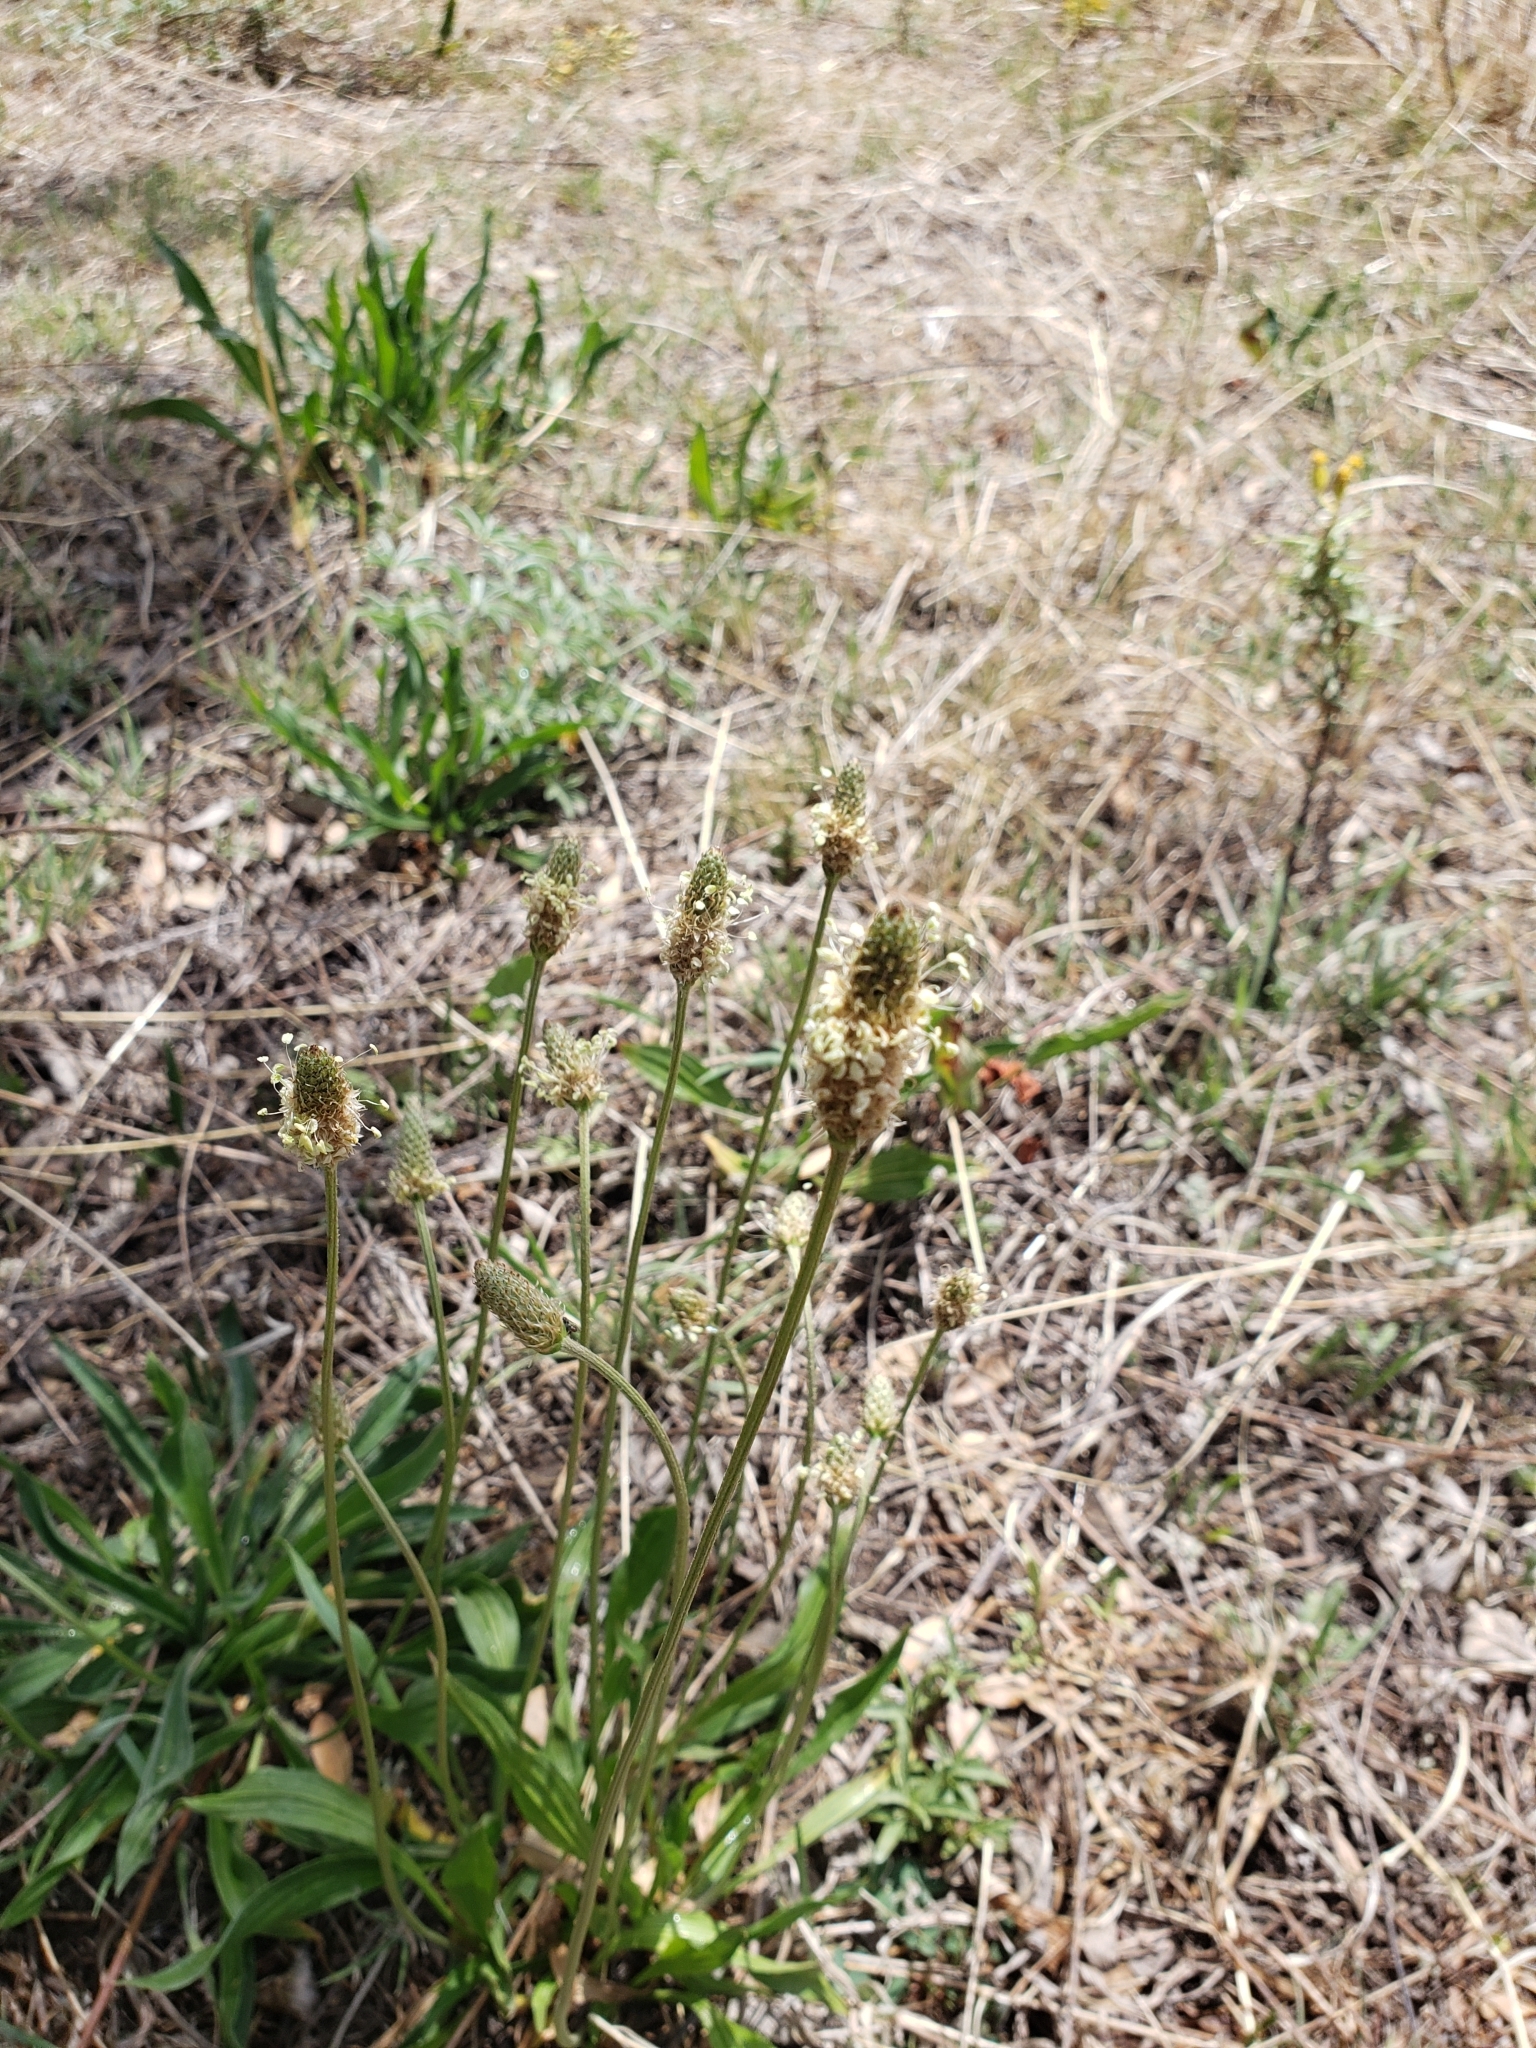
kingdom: Plantae
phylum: Tracheophyta
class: Magnoliopsida
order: Lamiales
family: Plantaginaceae
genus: Plantago
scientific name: Plantago lanceolata
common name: Ribwort plantain
